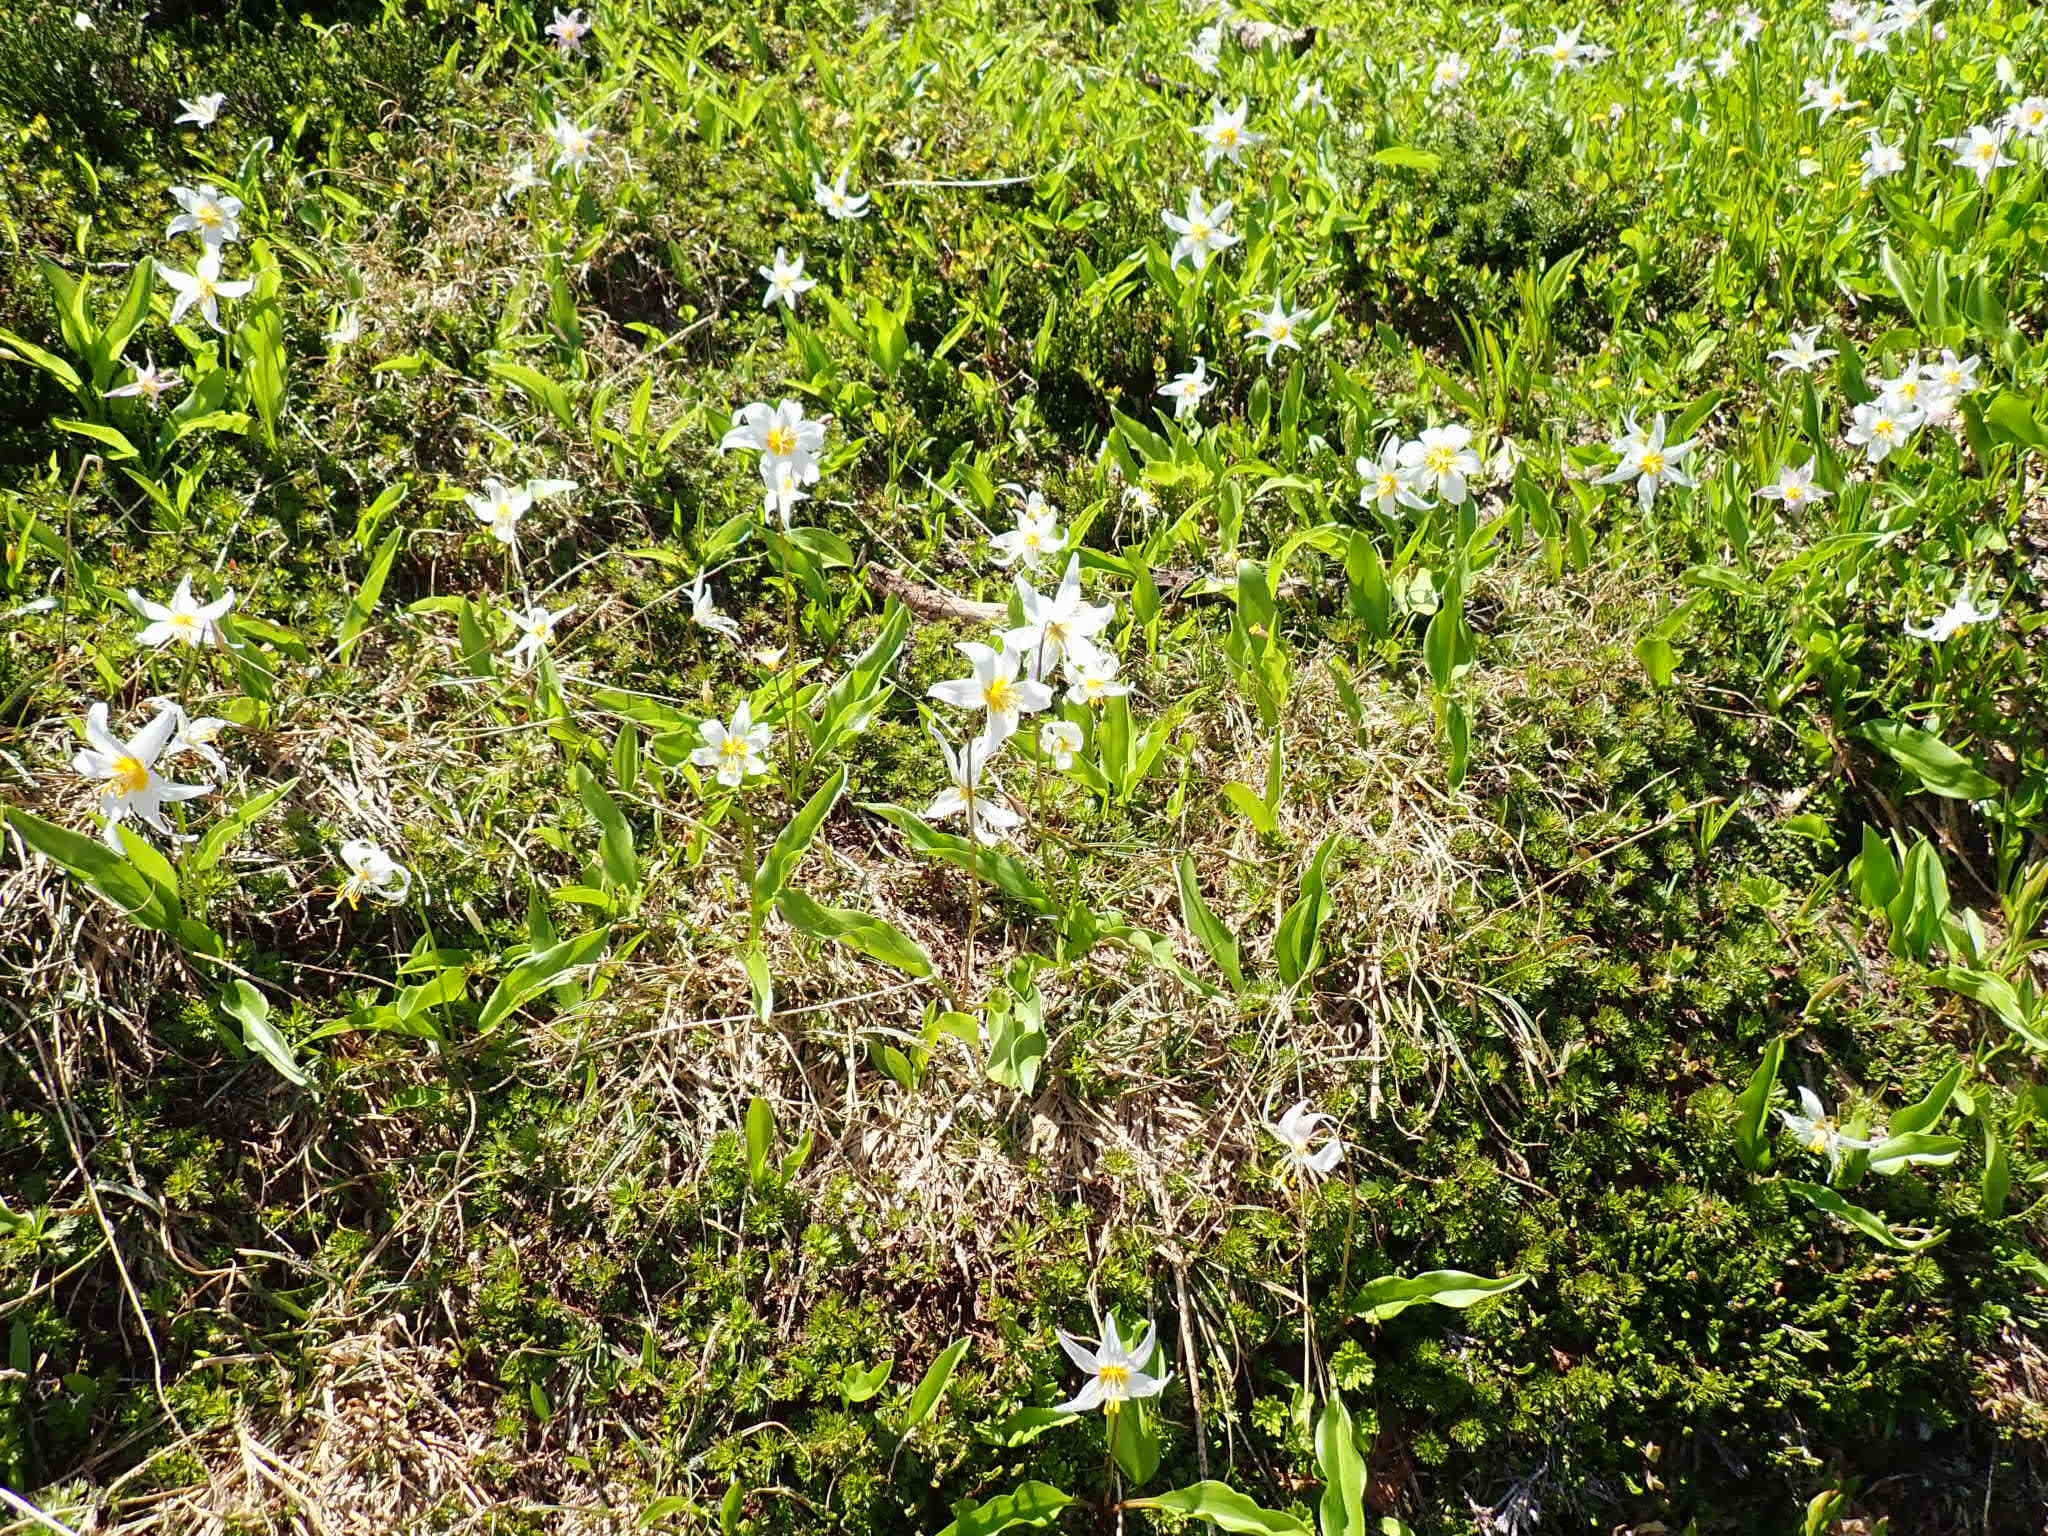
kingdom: Plantae
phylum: Tracheophyta
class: Liliopsida
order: Liliales
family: Liliaceae
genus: Erythronium
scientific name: Erythronium montanum
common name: Avalanche lily
